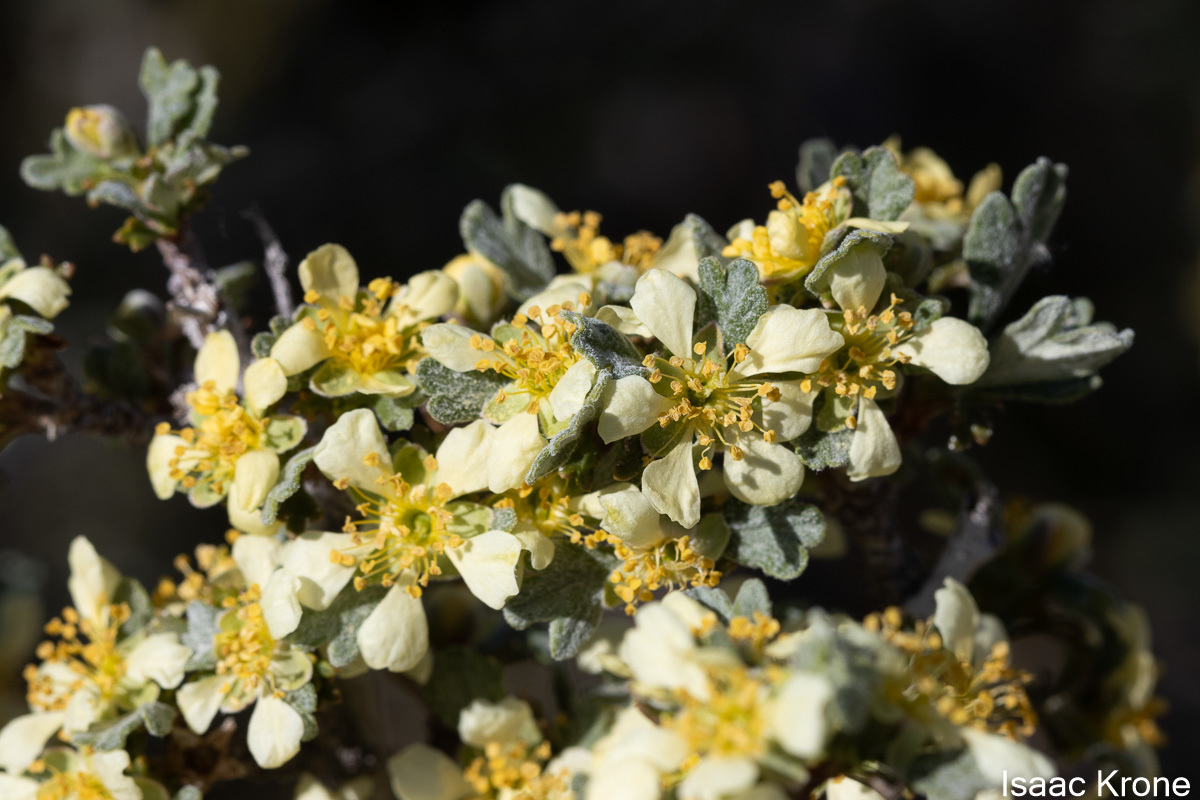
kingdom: Plantae
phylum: Tracheophyta
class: Magnoliopsida
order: Rosales
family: Rosaceae
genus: Purshia
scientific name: Purshia tridentata
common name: Antelope bitterbrush
